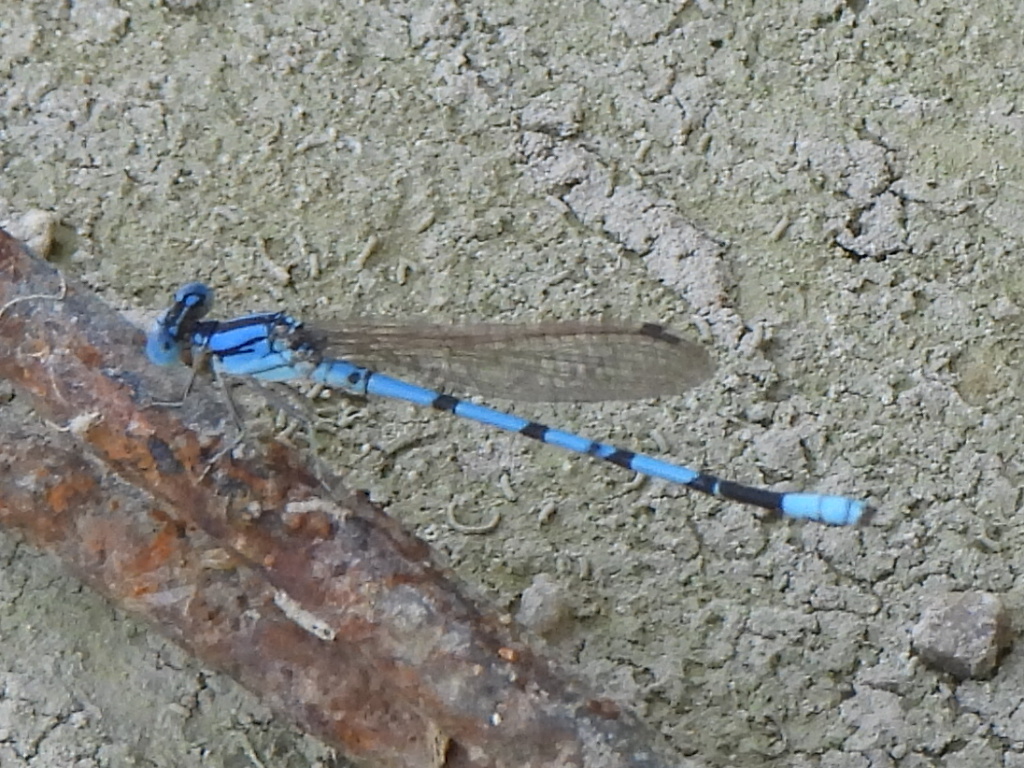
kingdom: Animalia
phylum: Arthropoda
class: Insecta
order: Odonata
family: Coenagrionidae
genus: Argia
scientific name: Argia nahuana
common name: Aztec dancer
